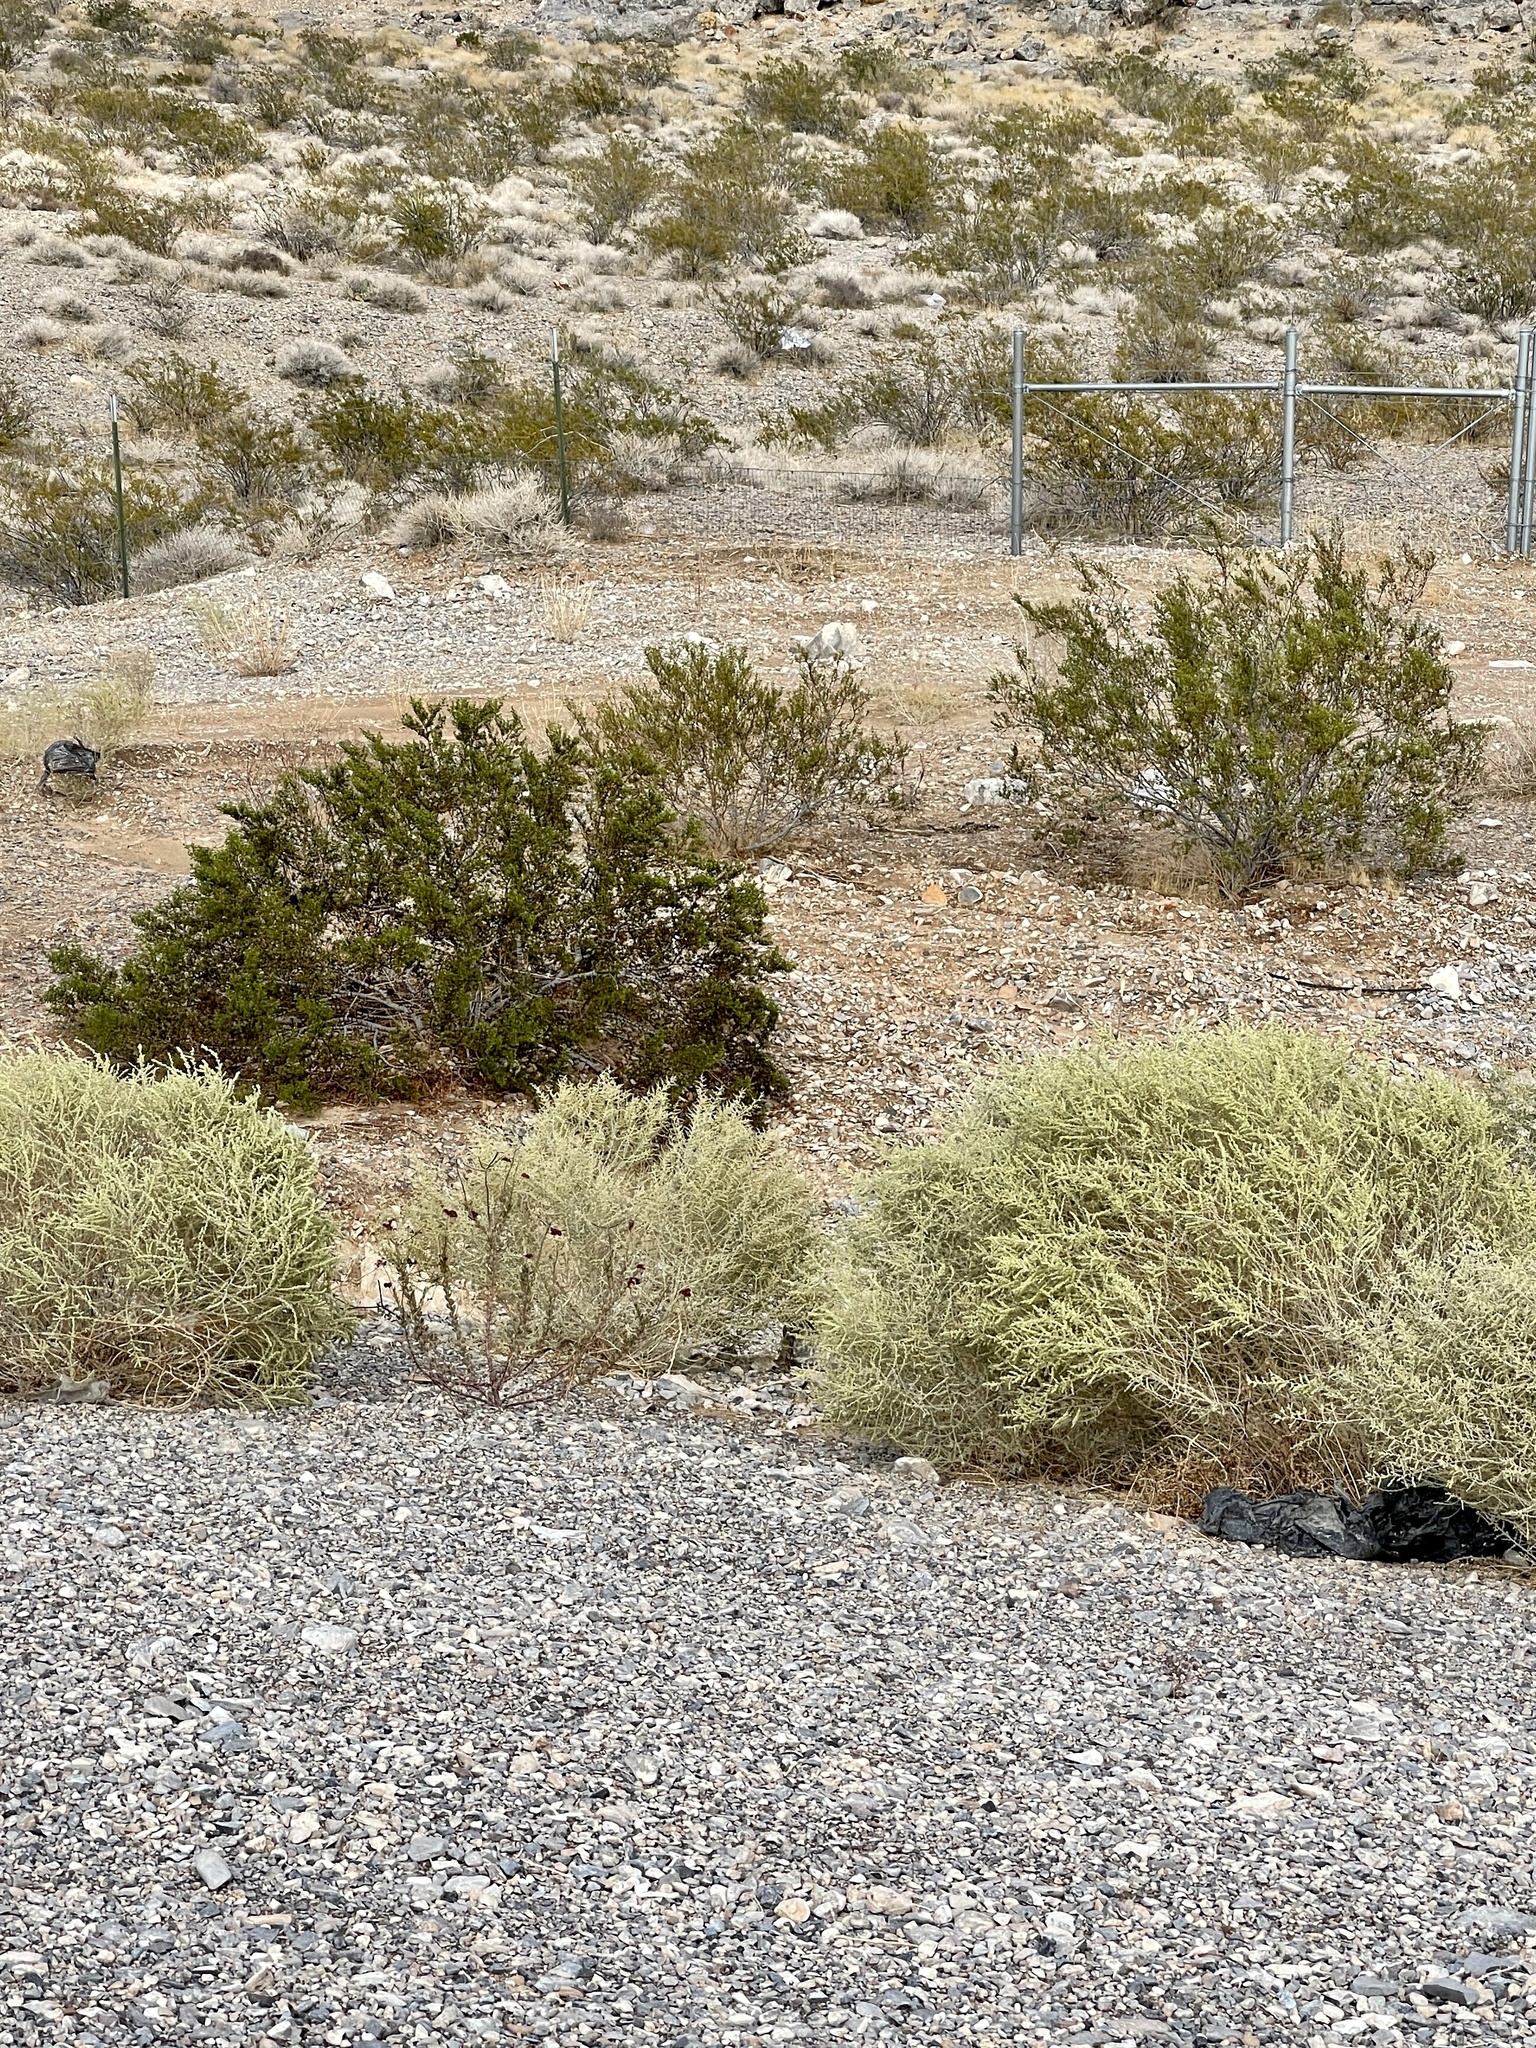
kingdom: Plantae
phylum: Tracheophyta
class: Magnoliopsida
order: Zygophyllales
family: Zygophyllaceae
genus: Larrea
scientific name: Larrea tridentata
